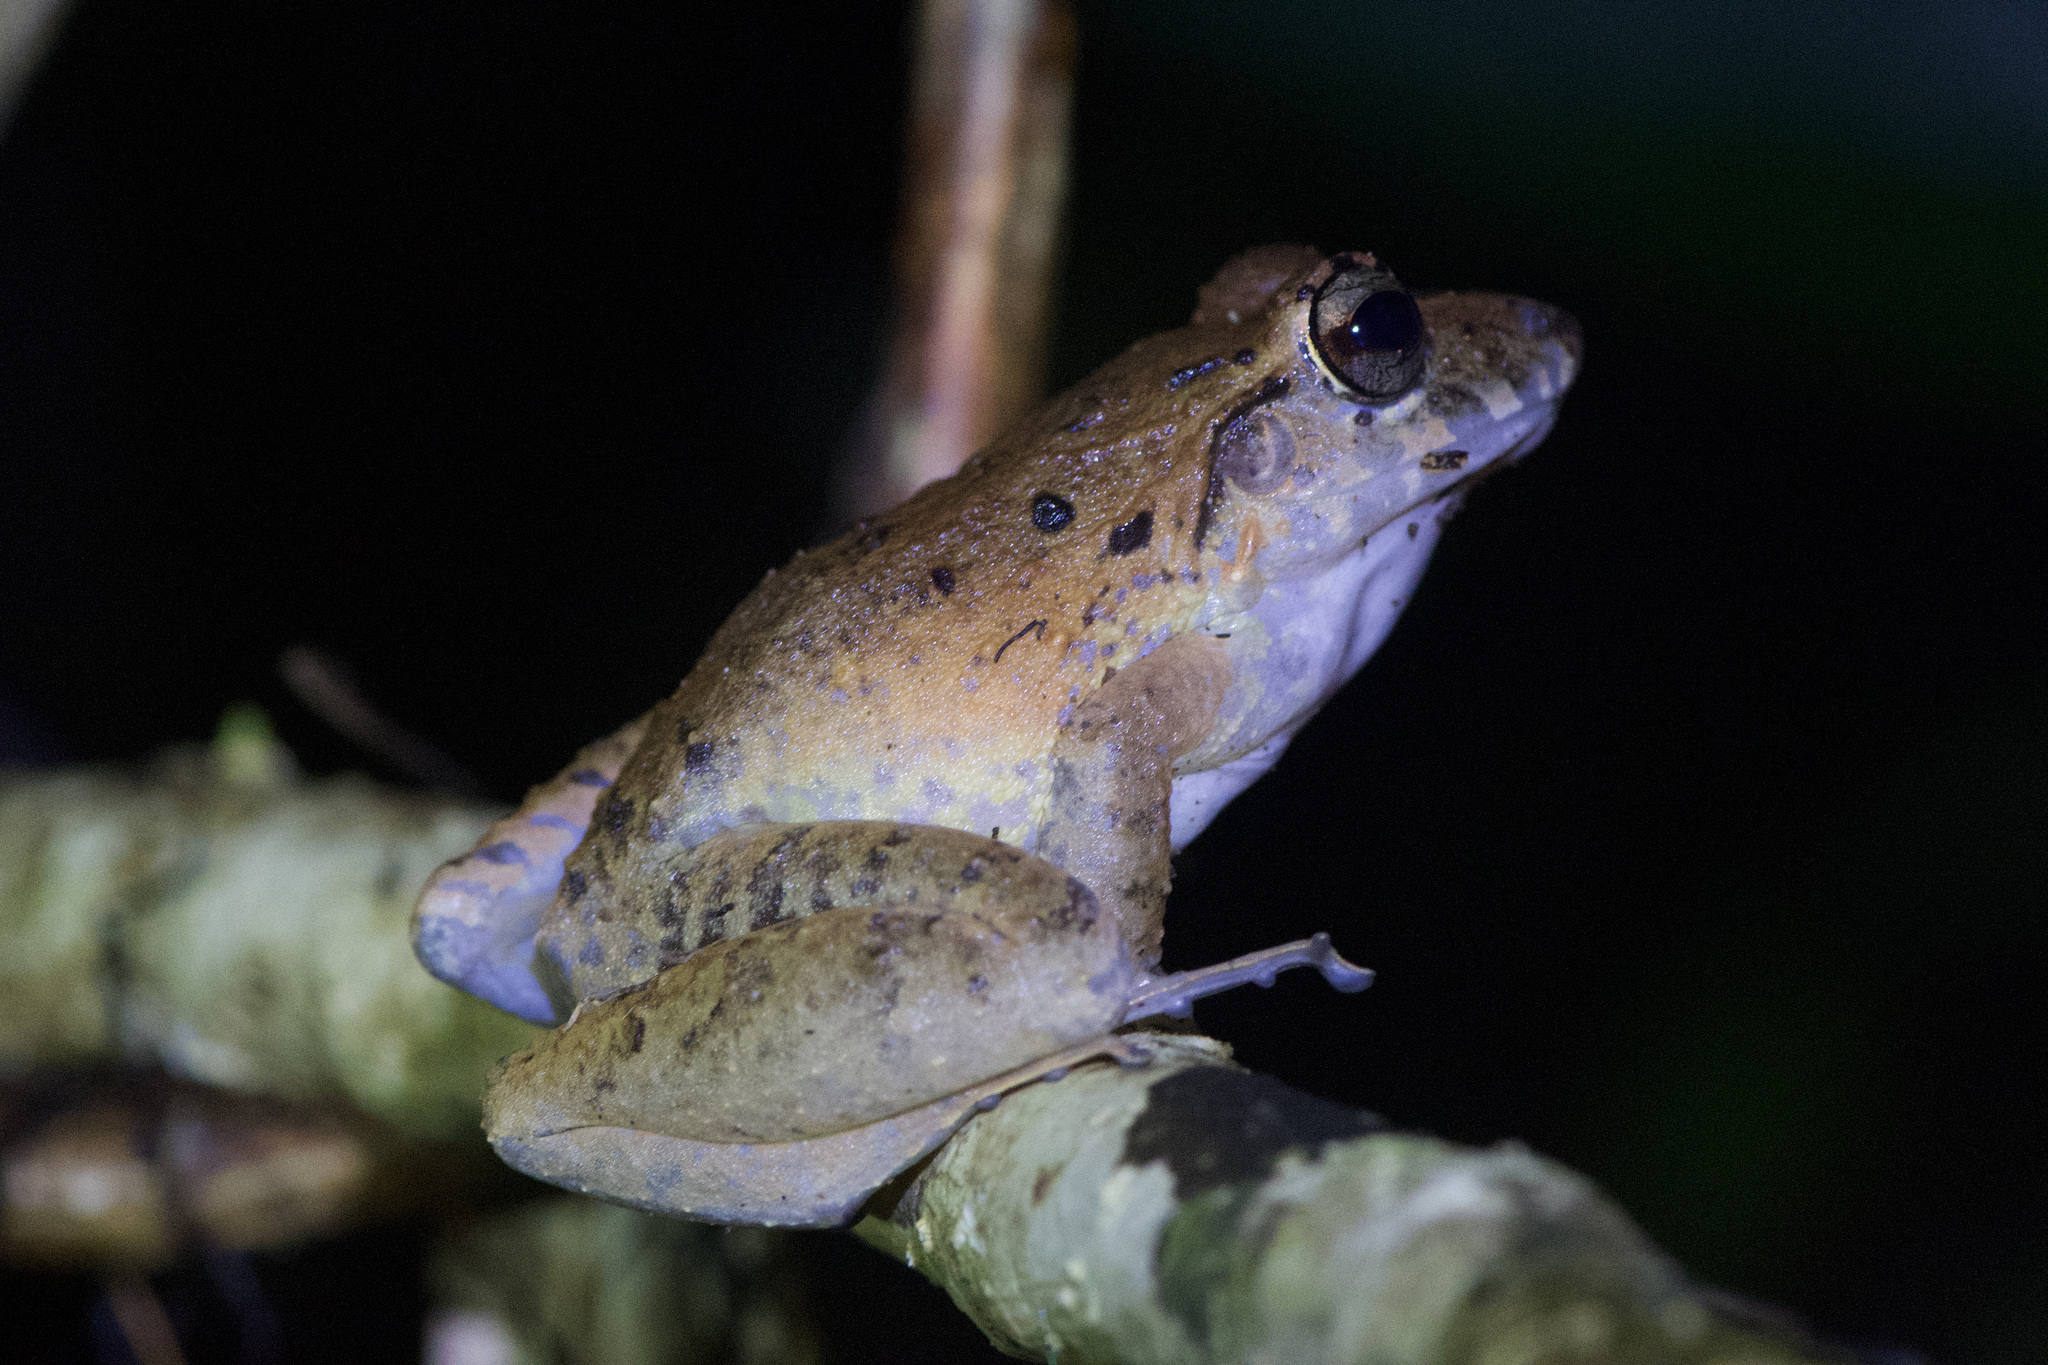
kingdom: Animalia
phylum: Chordata
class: Amphibia
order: Anura
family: Craugastoridae
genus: Craugastor
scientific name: Craugastor fitzingeri
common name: Fitzinger's robber frog
